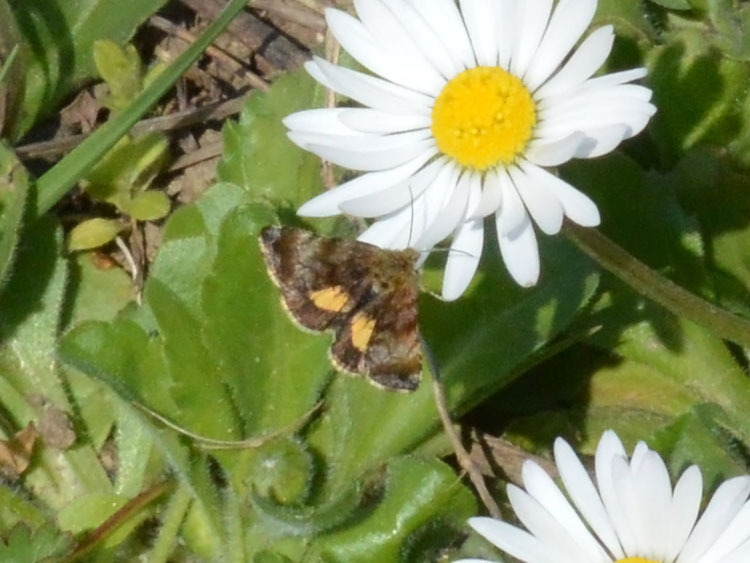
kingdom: Animalia
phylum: Arthropoda
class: Insecta
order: Lepidoptera
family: Noctuidae
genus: Panemeria
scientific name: Panemeria tenebrata
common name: Small yellow underwing
